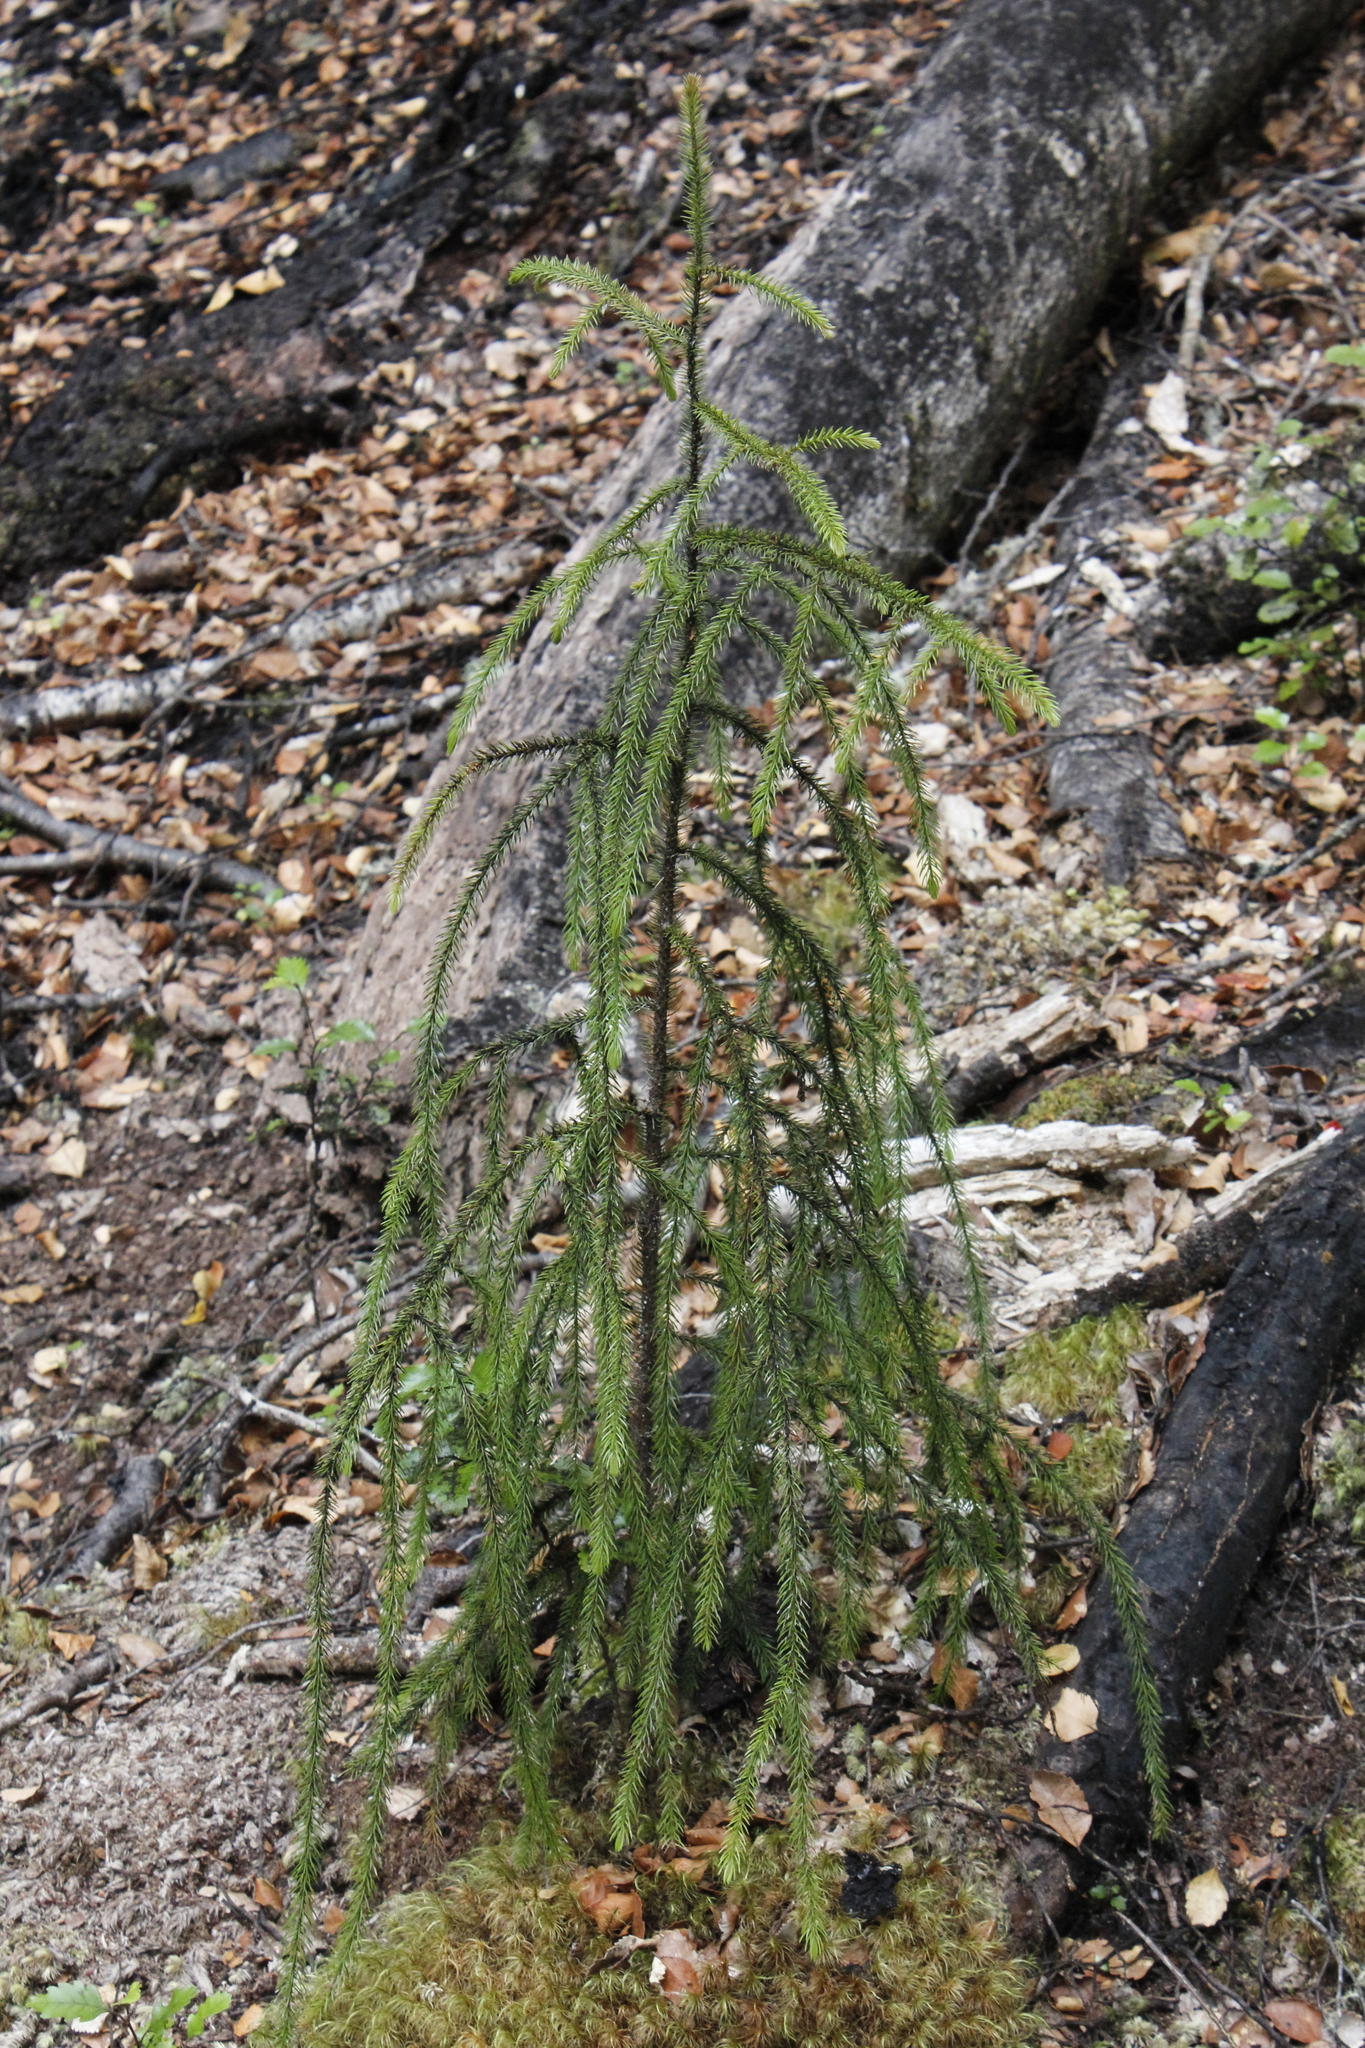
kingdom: Plantae
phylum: Tracheophyta
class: Pinopsida
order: Pinales
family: Podocarpaceae
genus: Dacrydium
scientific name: Dacrydium cupressinum
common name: Red pine
